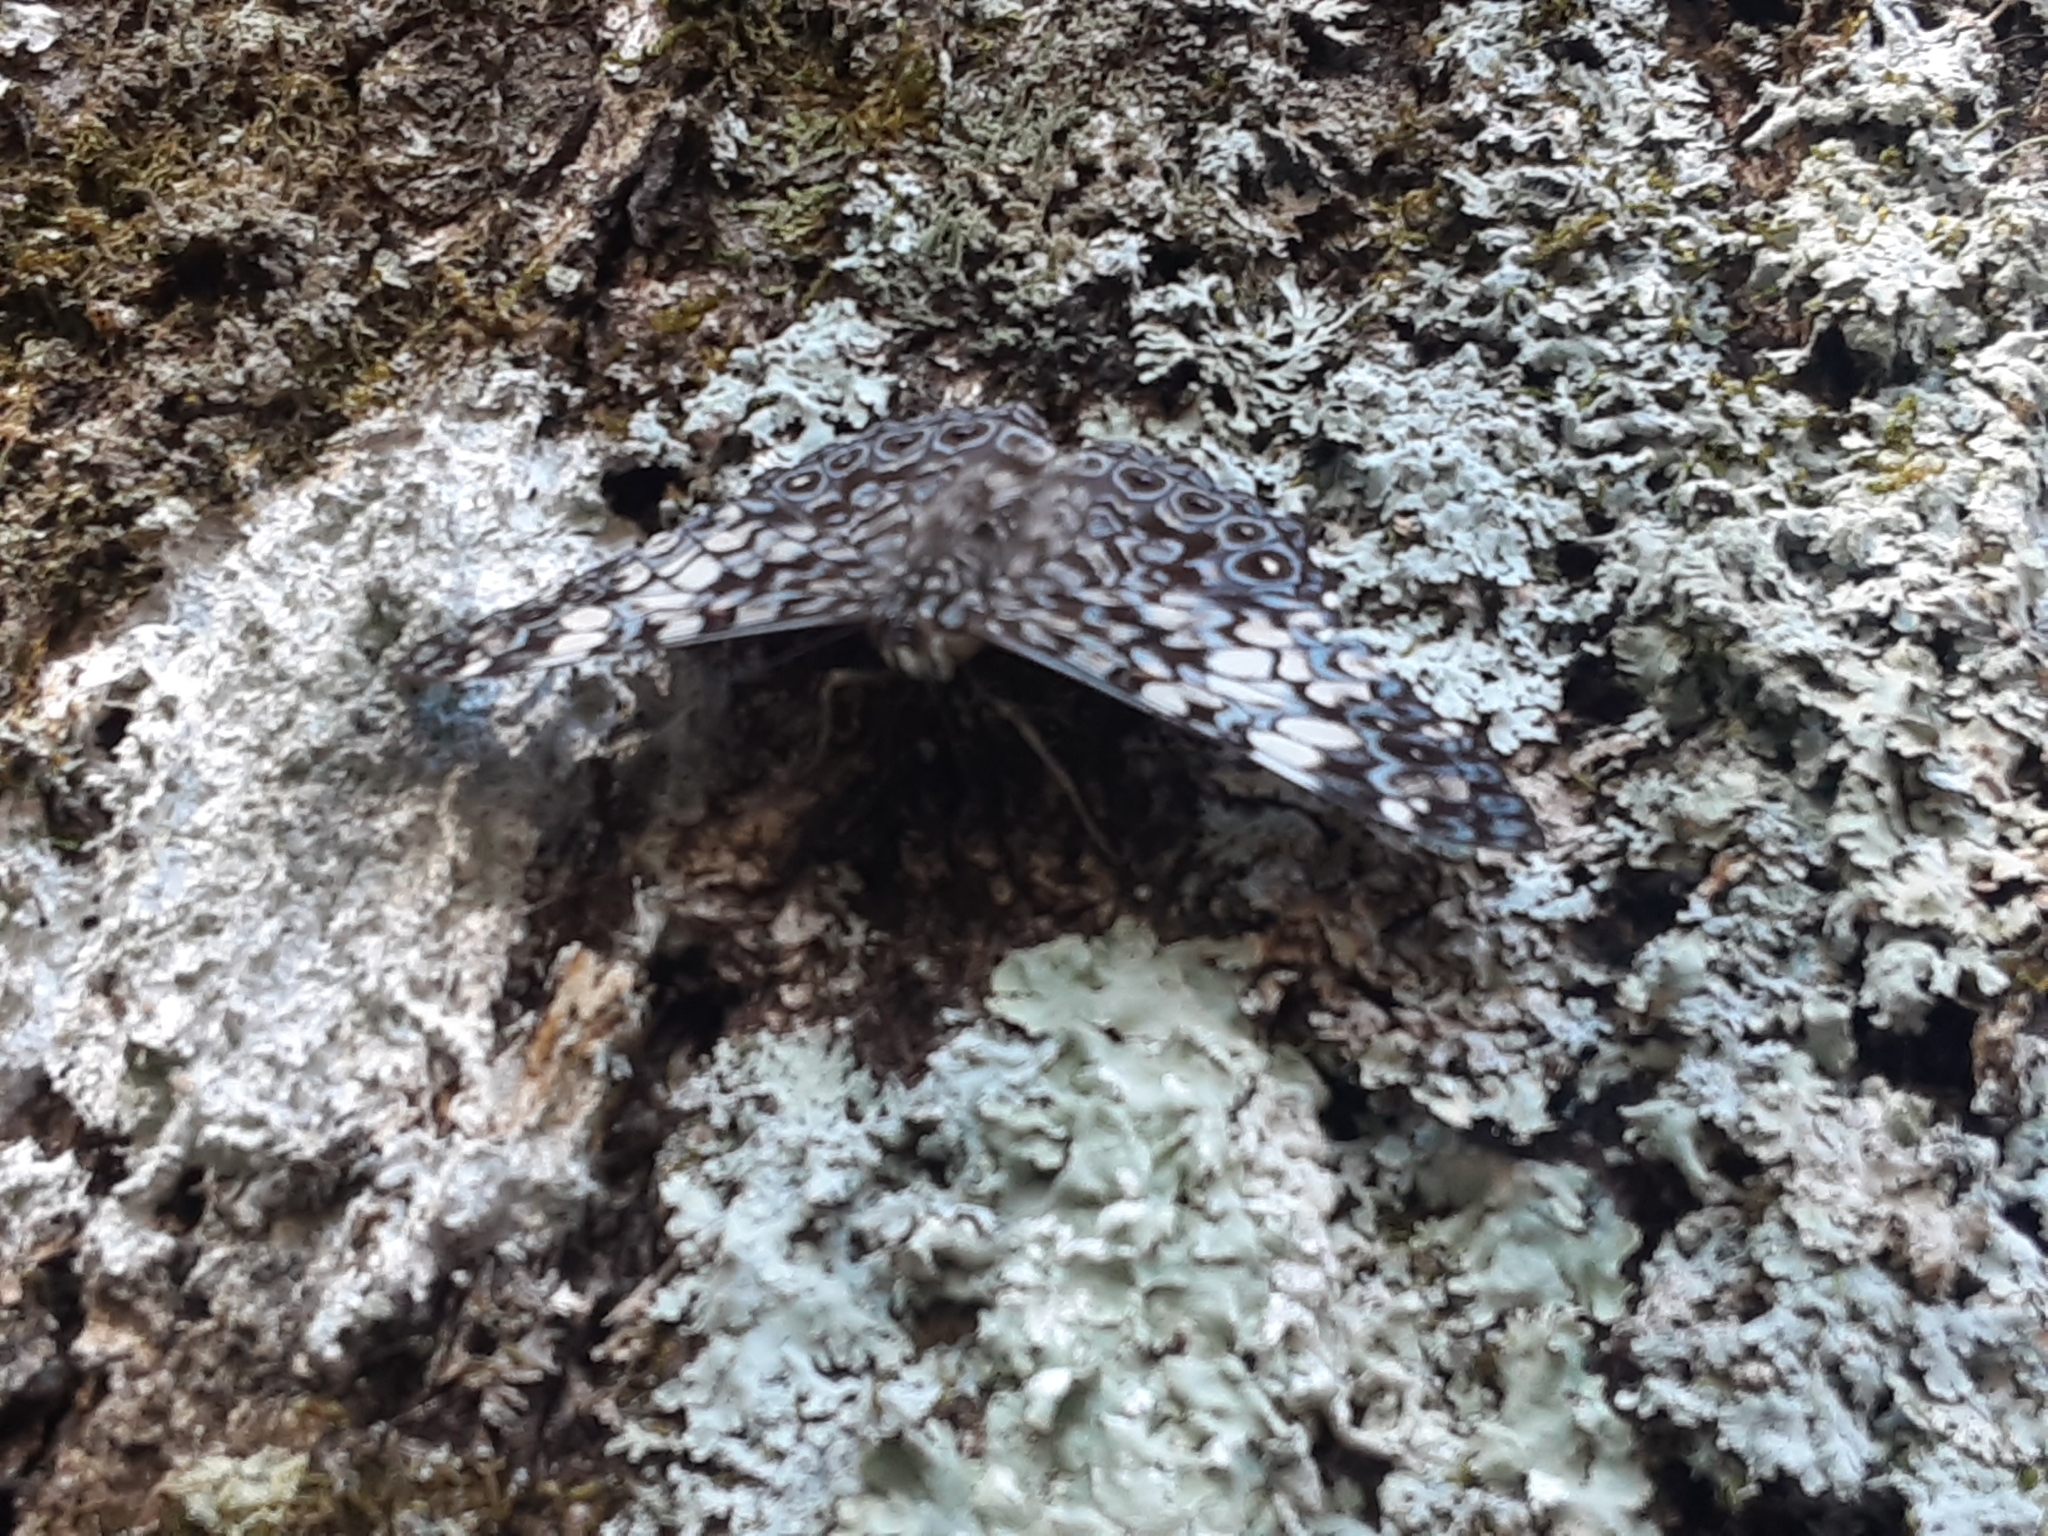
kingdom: Animalia
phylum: Arthropoda
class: Insecta
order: Lepidoptera
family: Nymphalidae
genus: Hamadryas
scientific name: Hamadryas fornax
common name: Orange cracker
